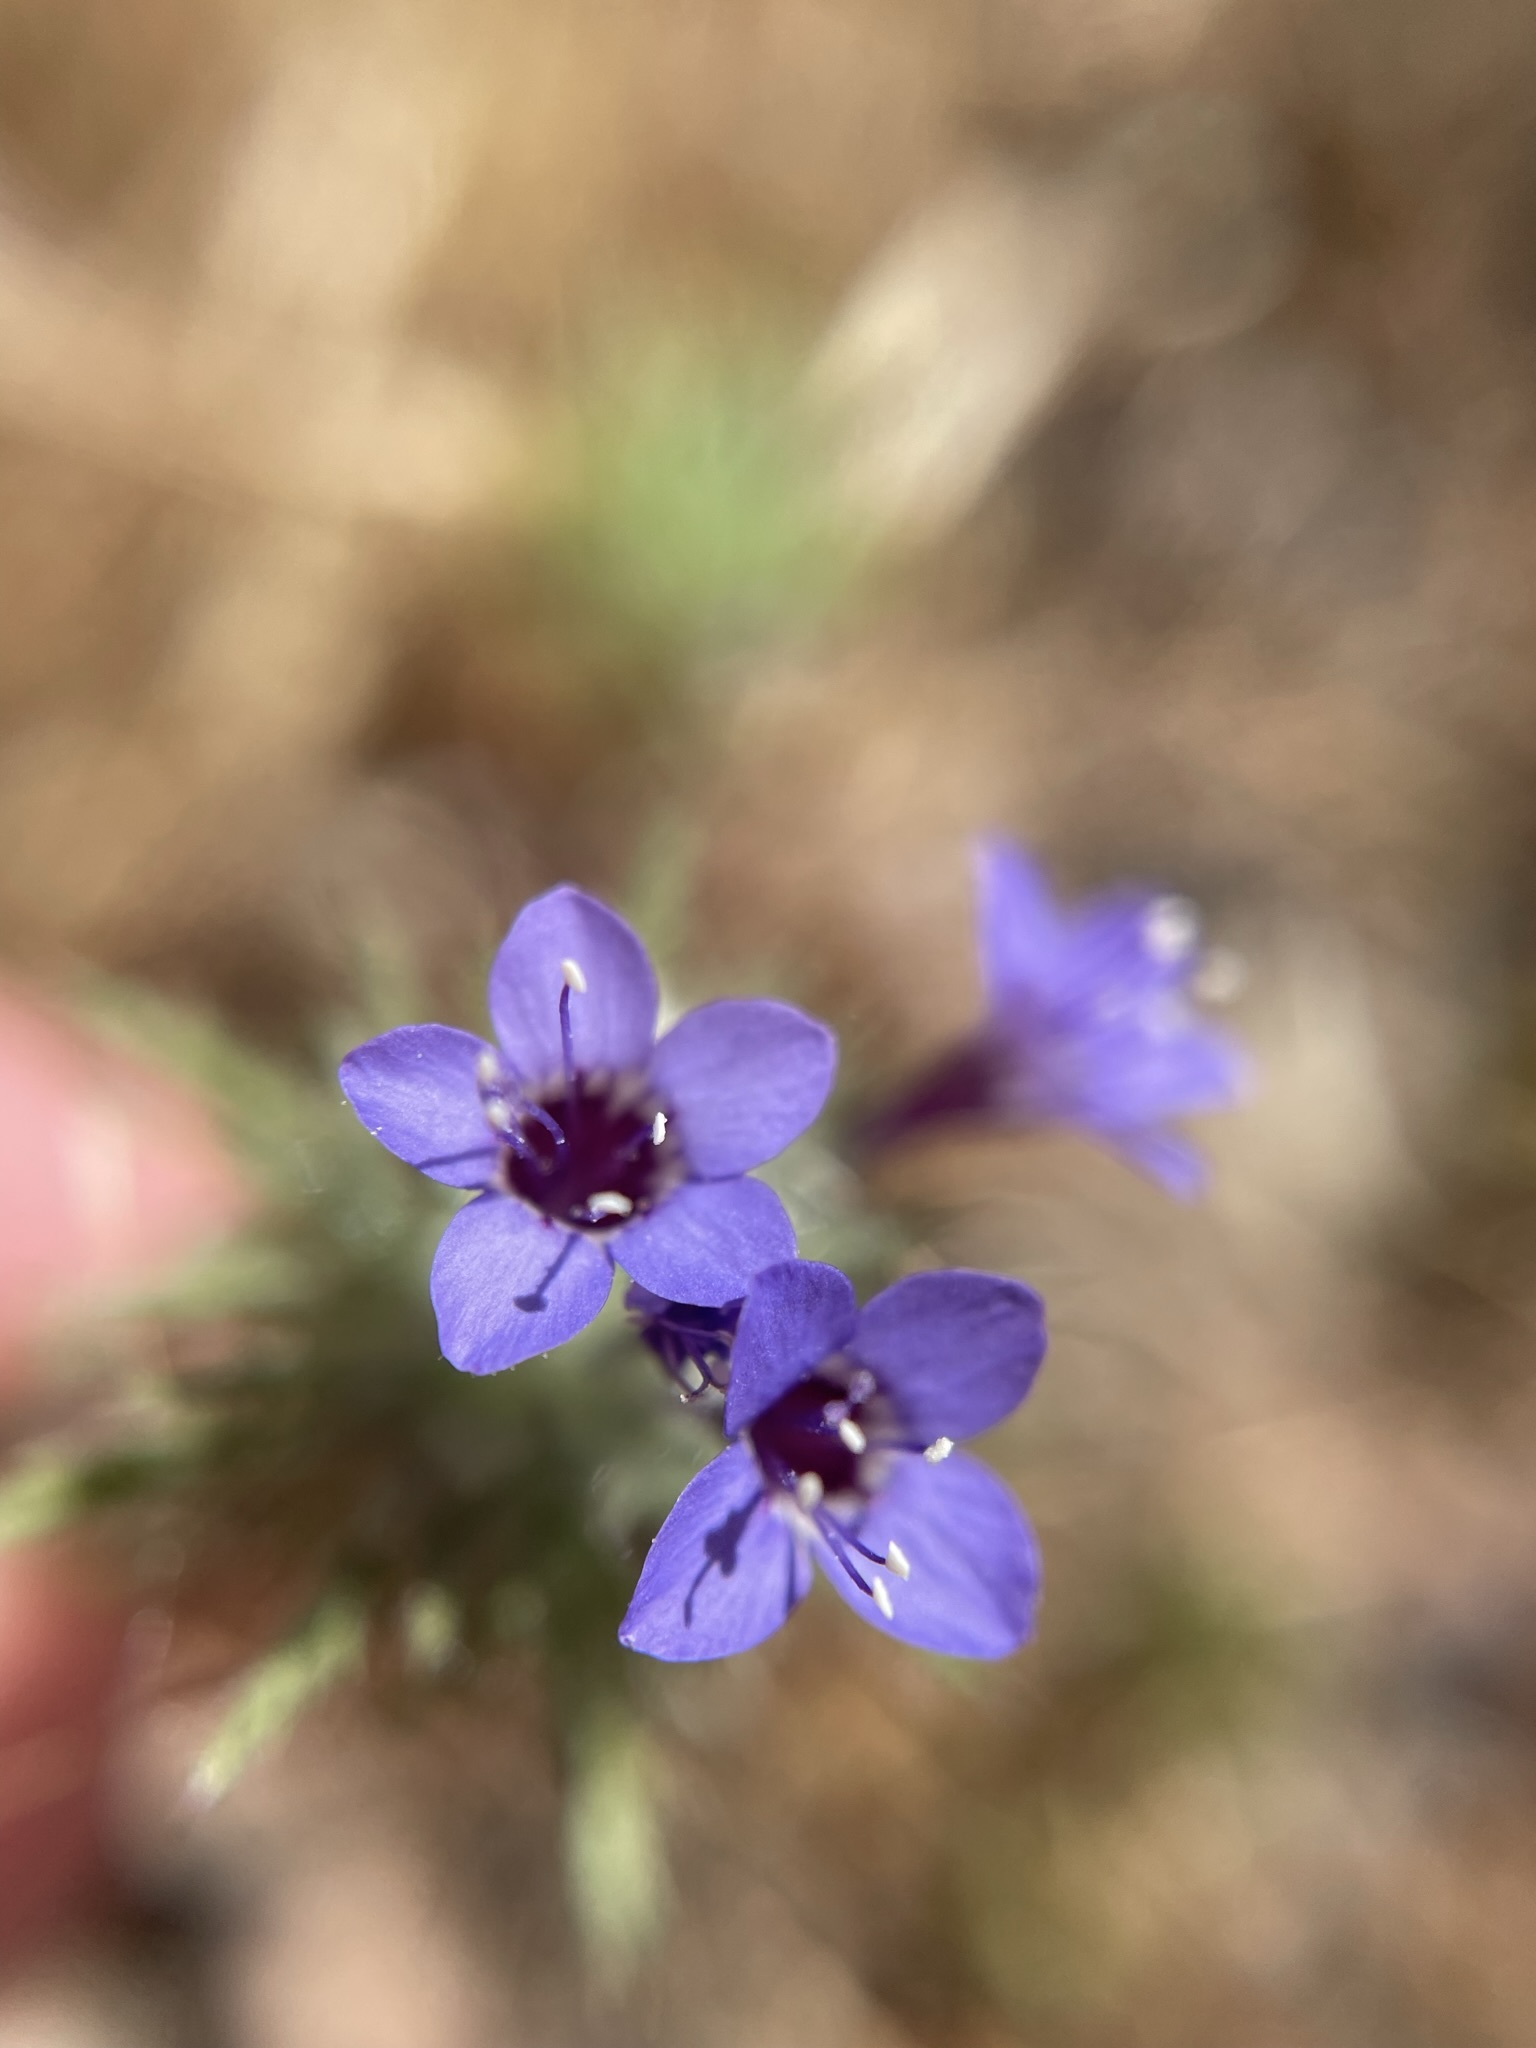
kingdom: Plantae
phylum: Tracheophyta
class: Magnoliopsida
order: Ericales
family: Polemoniaceae
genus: Navarretia
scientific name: Navarretia pubescens
